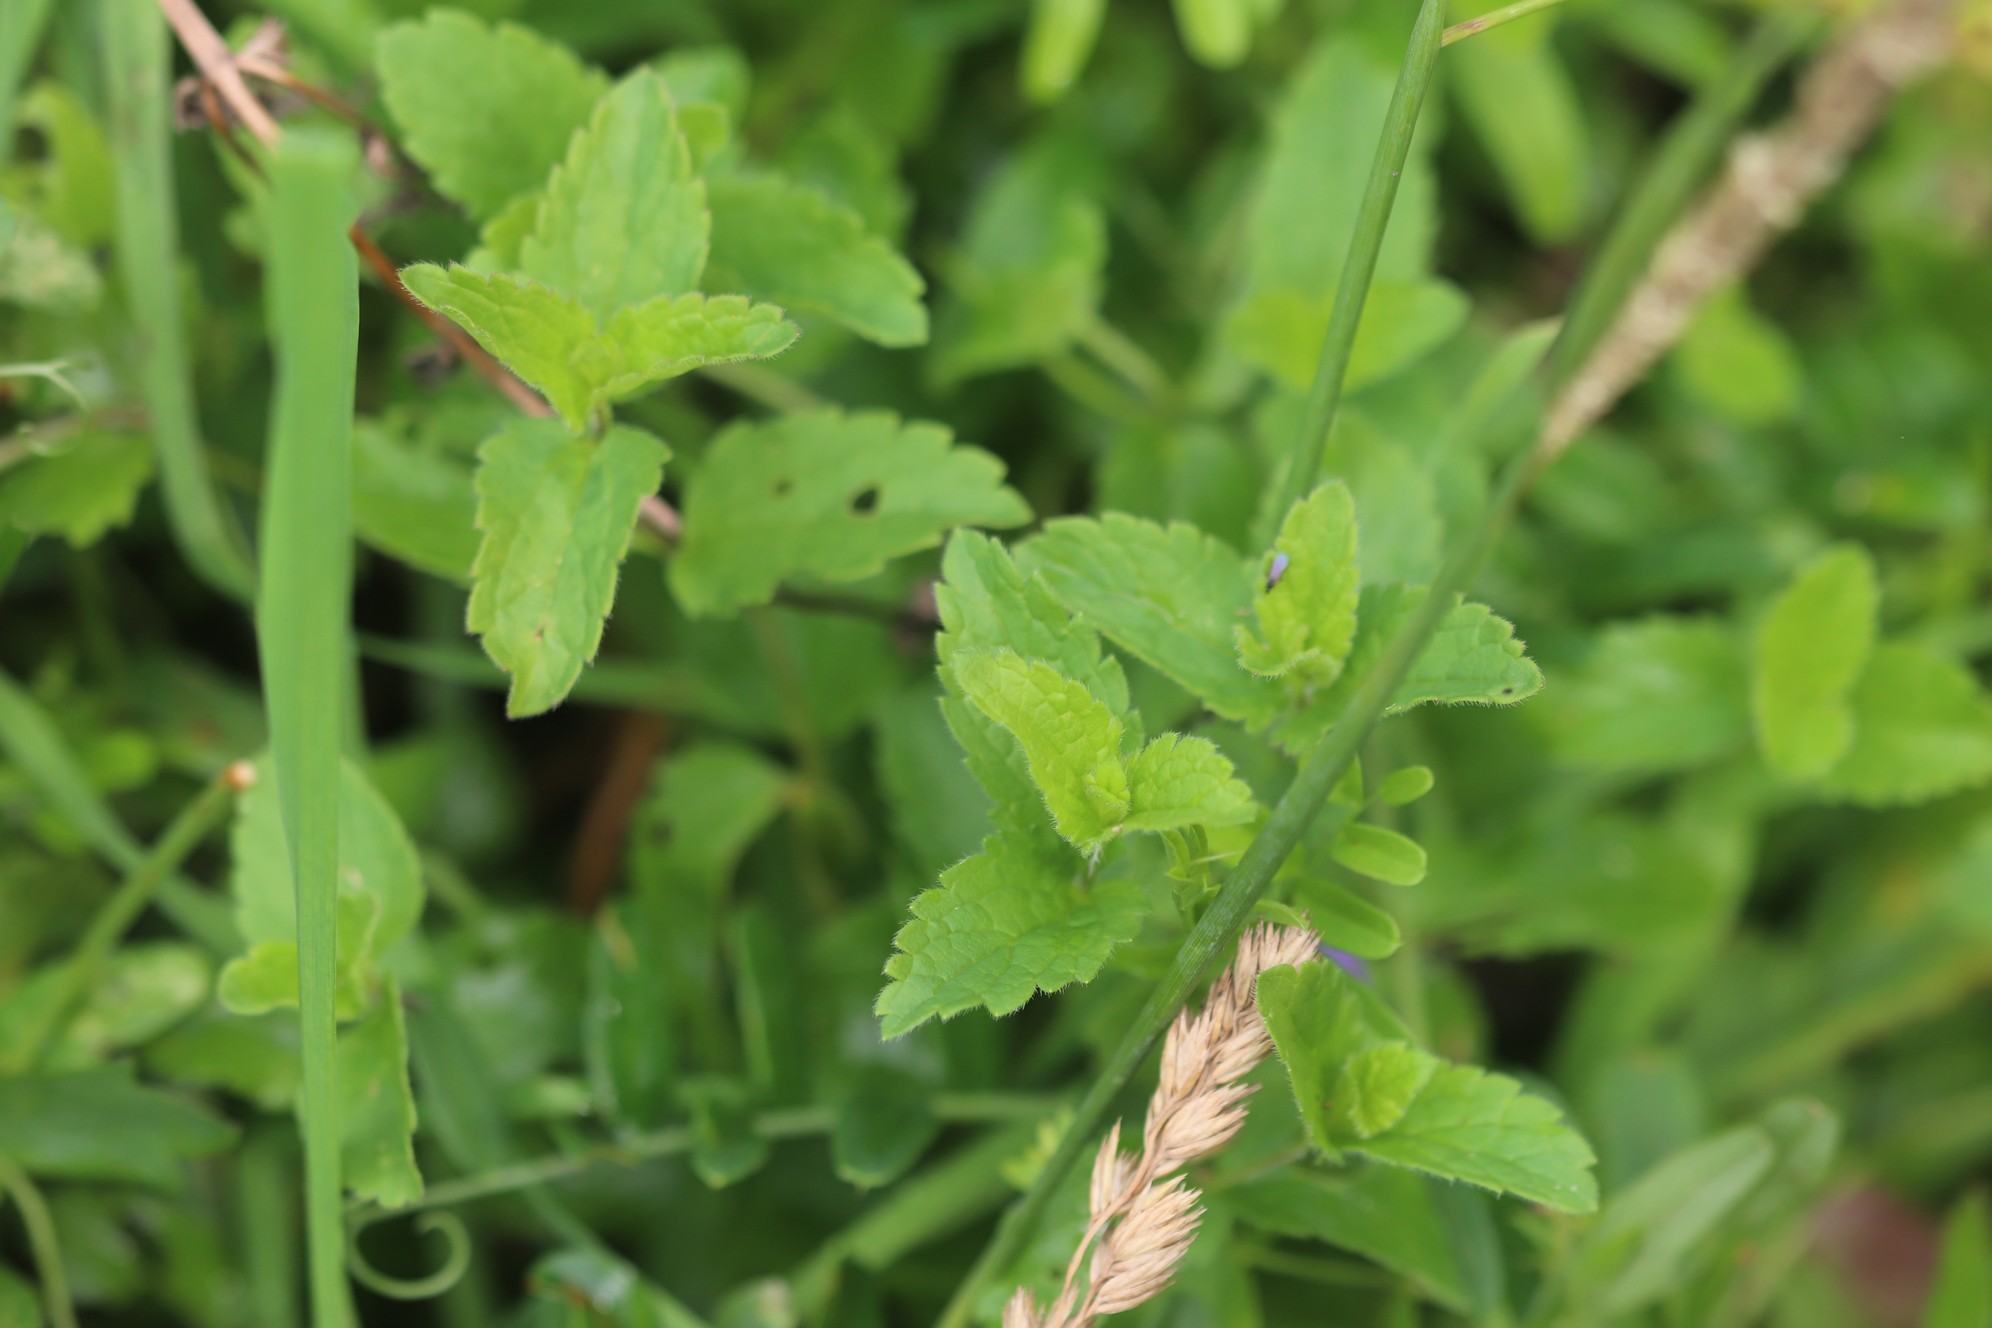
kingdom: Plantae
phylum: Tracheophyta
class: Magnoliopsida
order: Lamiales
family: Plantaginaceae
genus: Veronica
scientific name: Veronica chamaedrys
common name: Germander speedwell
